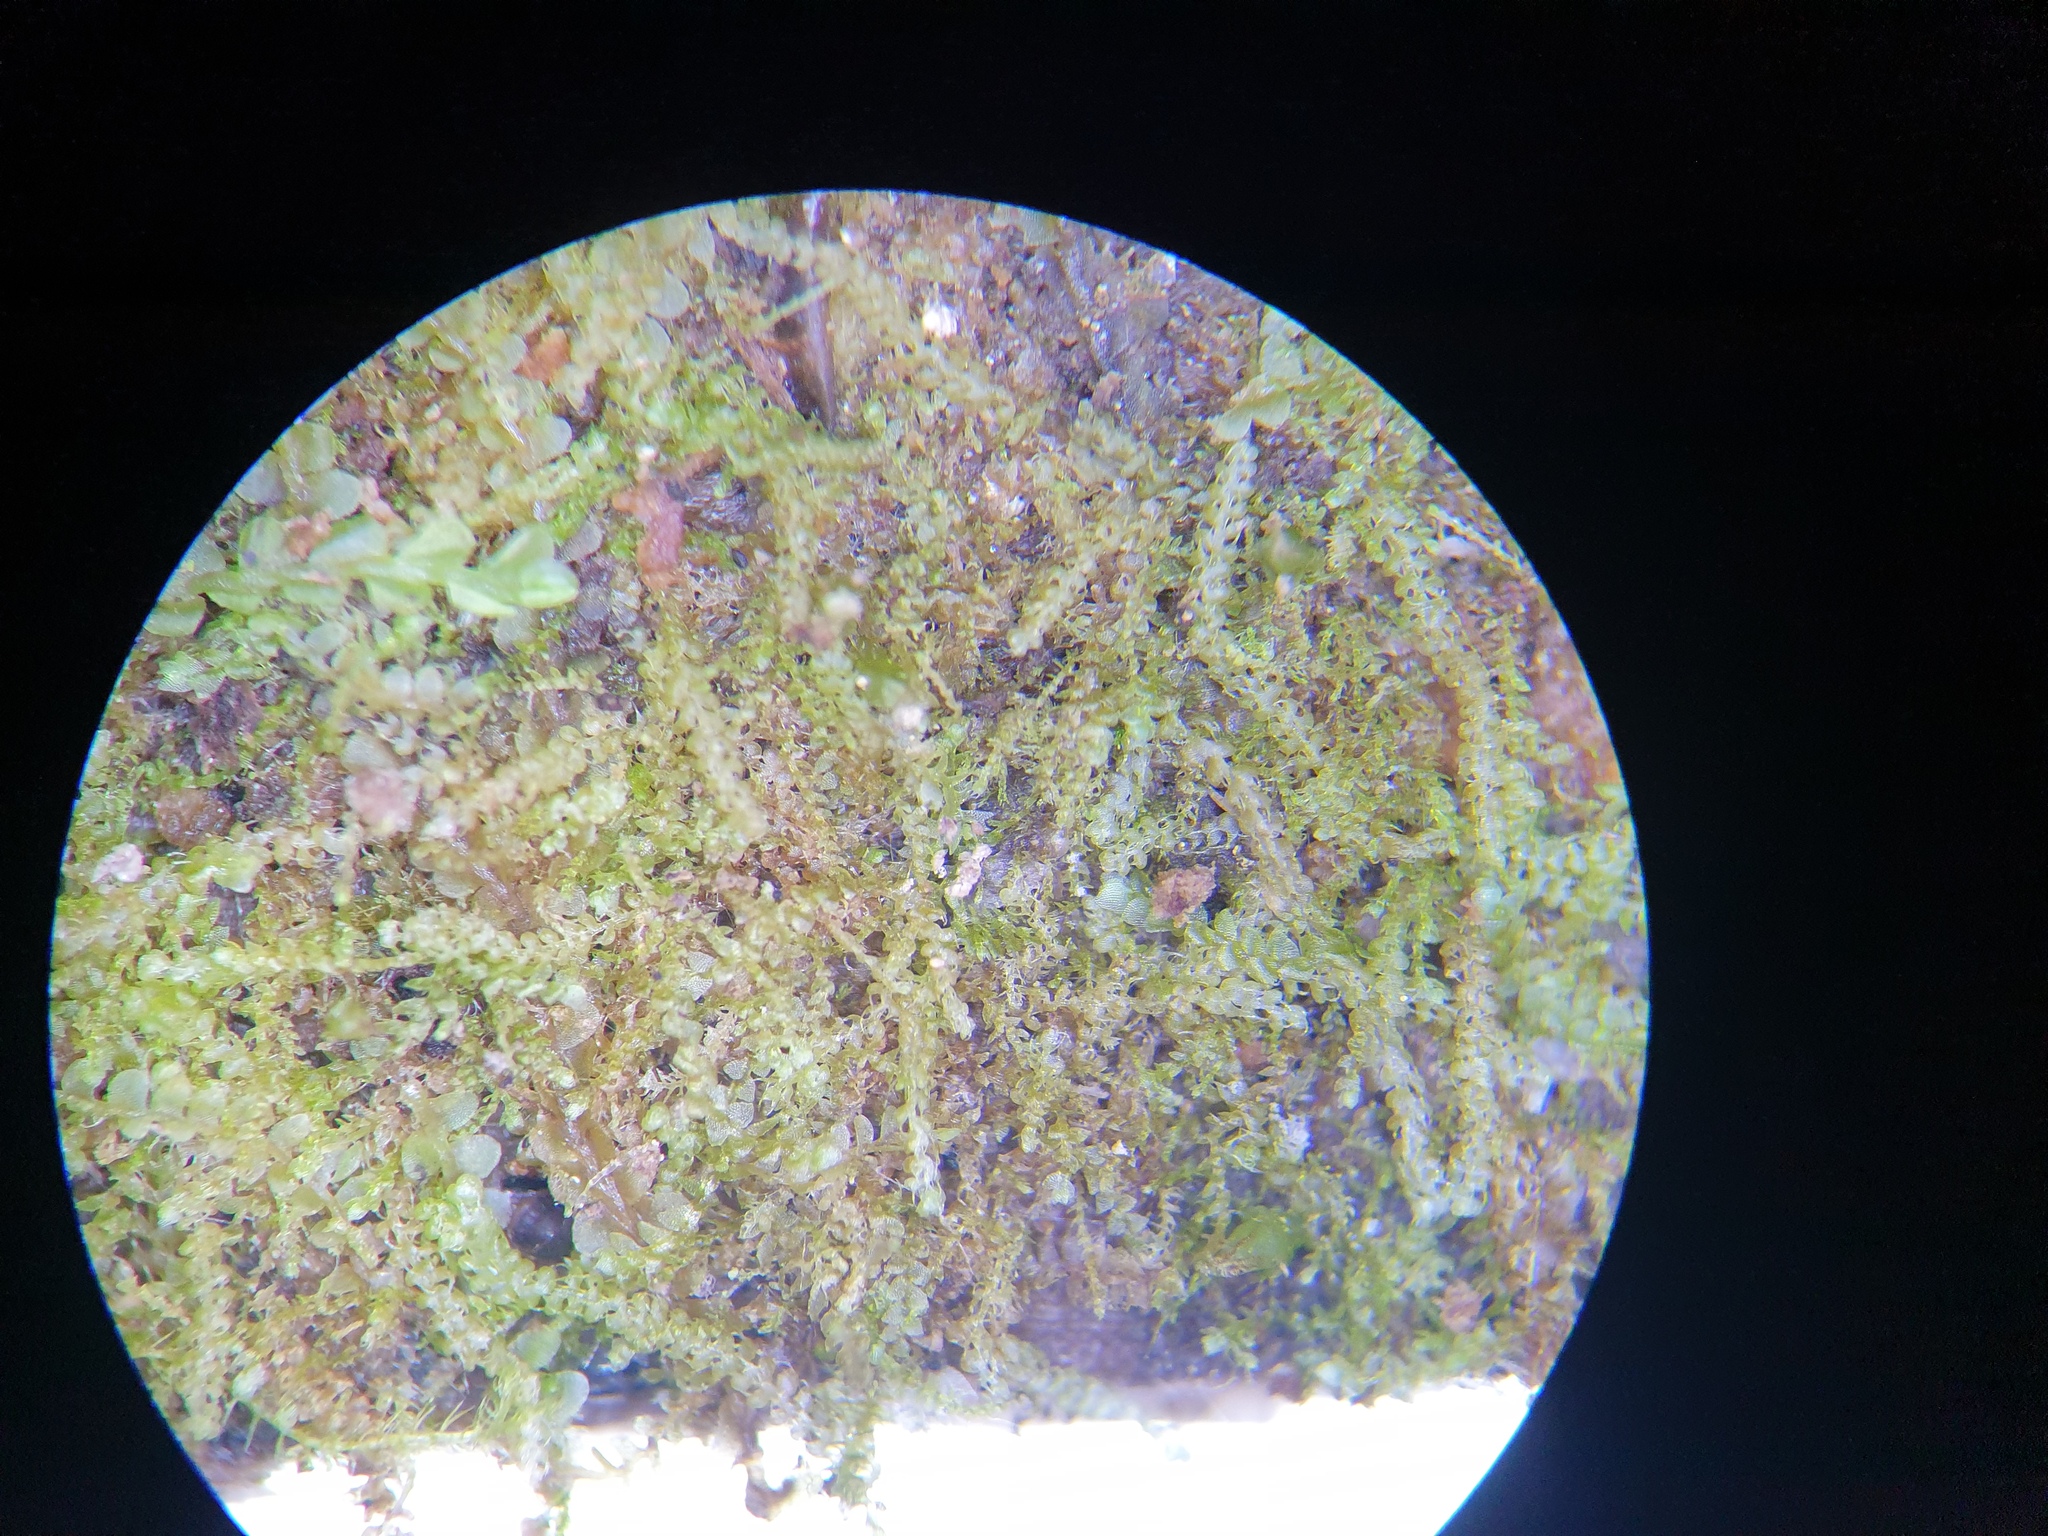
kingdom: Plantae
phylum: Marchantiophyta
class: Jungermanniopsida
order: Jungermanniales
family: Cephaloziaceae
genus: Nowellia
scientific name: Nowellia curvifolia
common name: Wood rustwort
